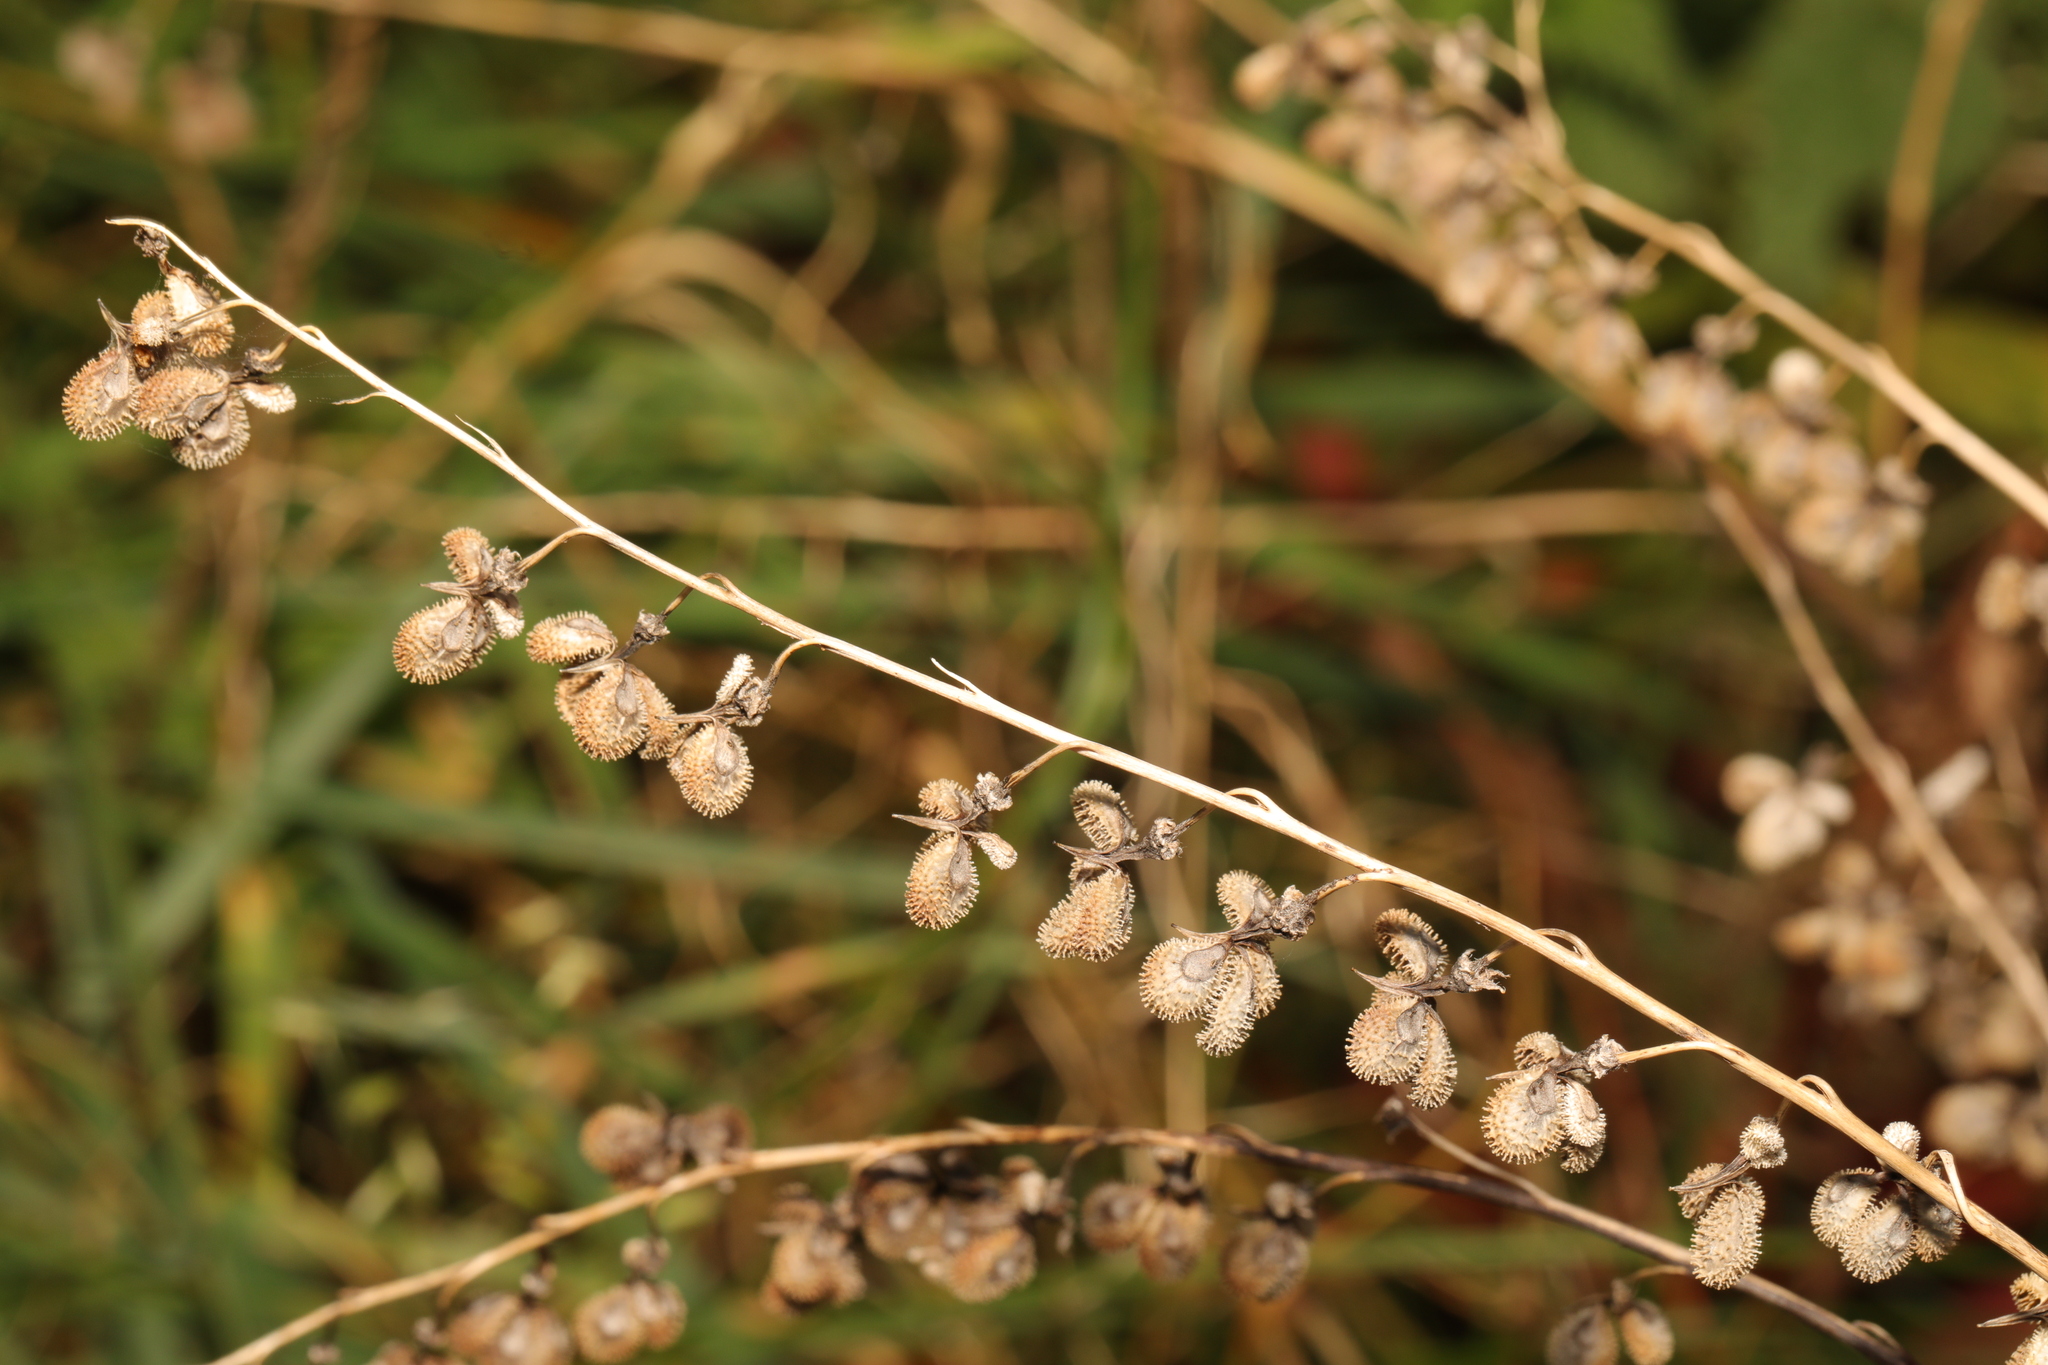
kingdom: Plantae
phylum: Tracheophyta
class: Magnoliopsida
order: Boraginales
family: Boraginaceae
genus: Cynoglossum
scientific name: Cynoglossum officinale
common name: Hound's-tongue
